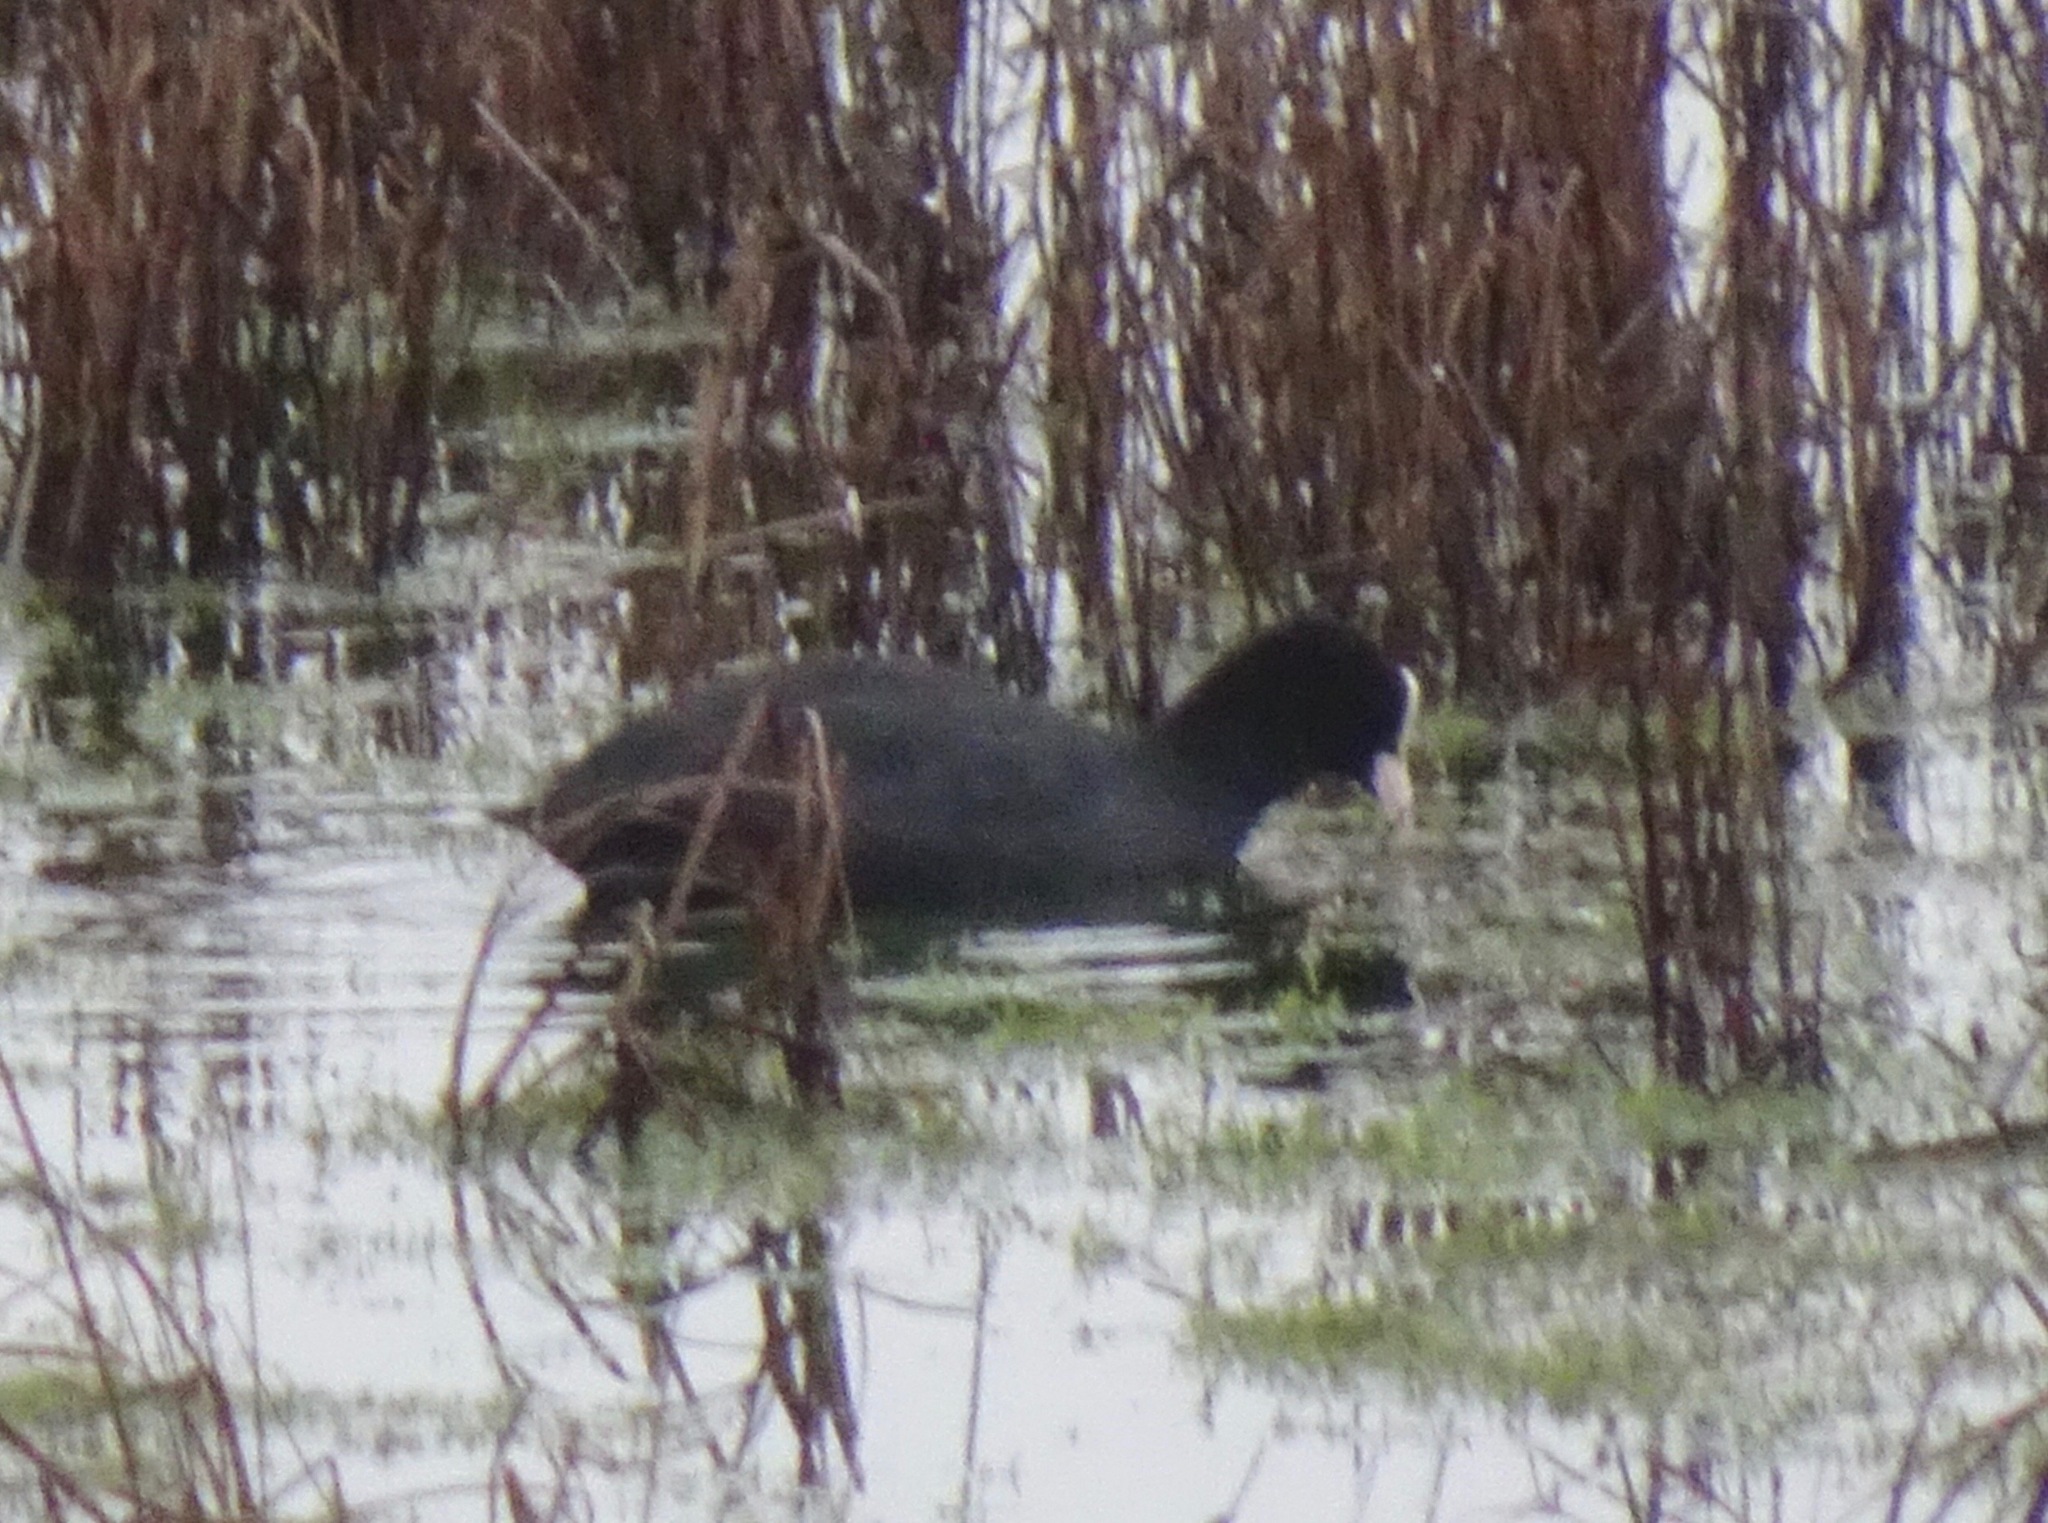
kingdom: Animalia
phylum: Chordata
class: Aves
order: Gruiformes
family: Rallidae
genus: Fulica
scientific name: Fulica atra
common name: Eurasian coot
